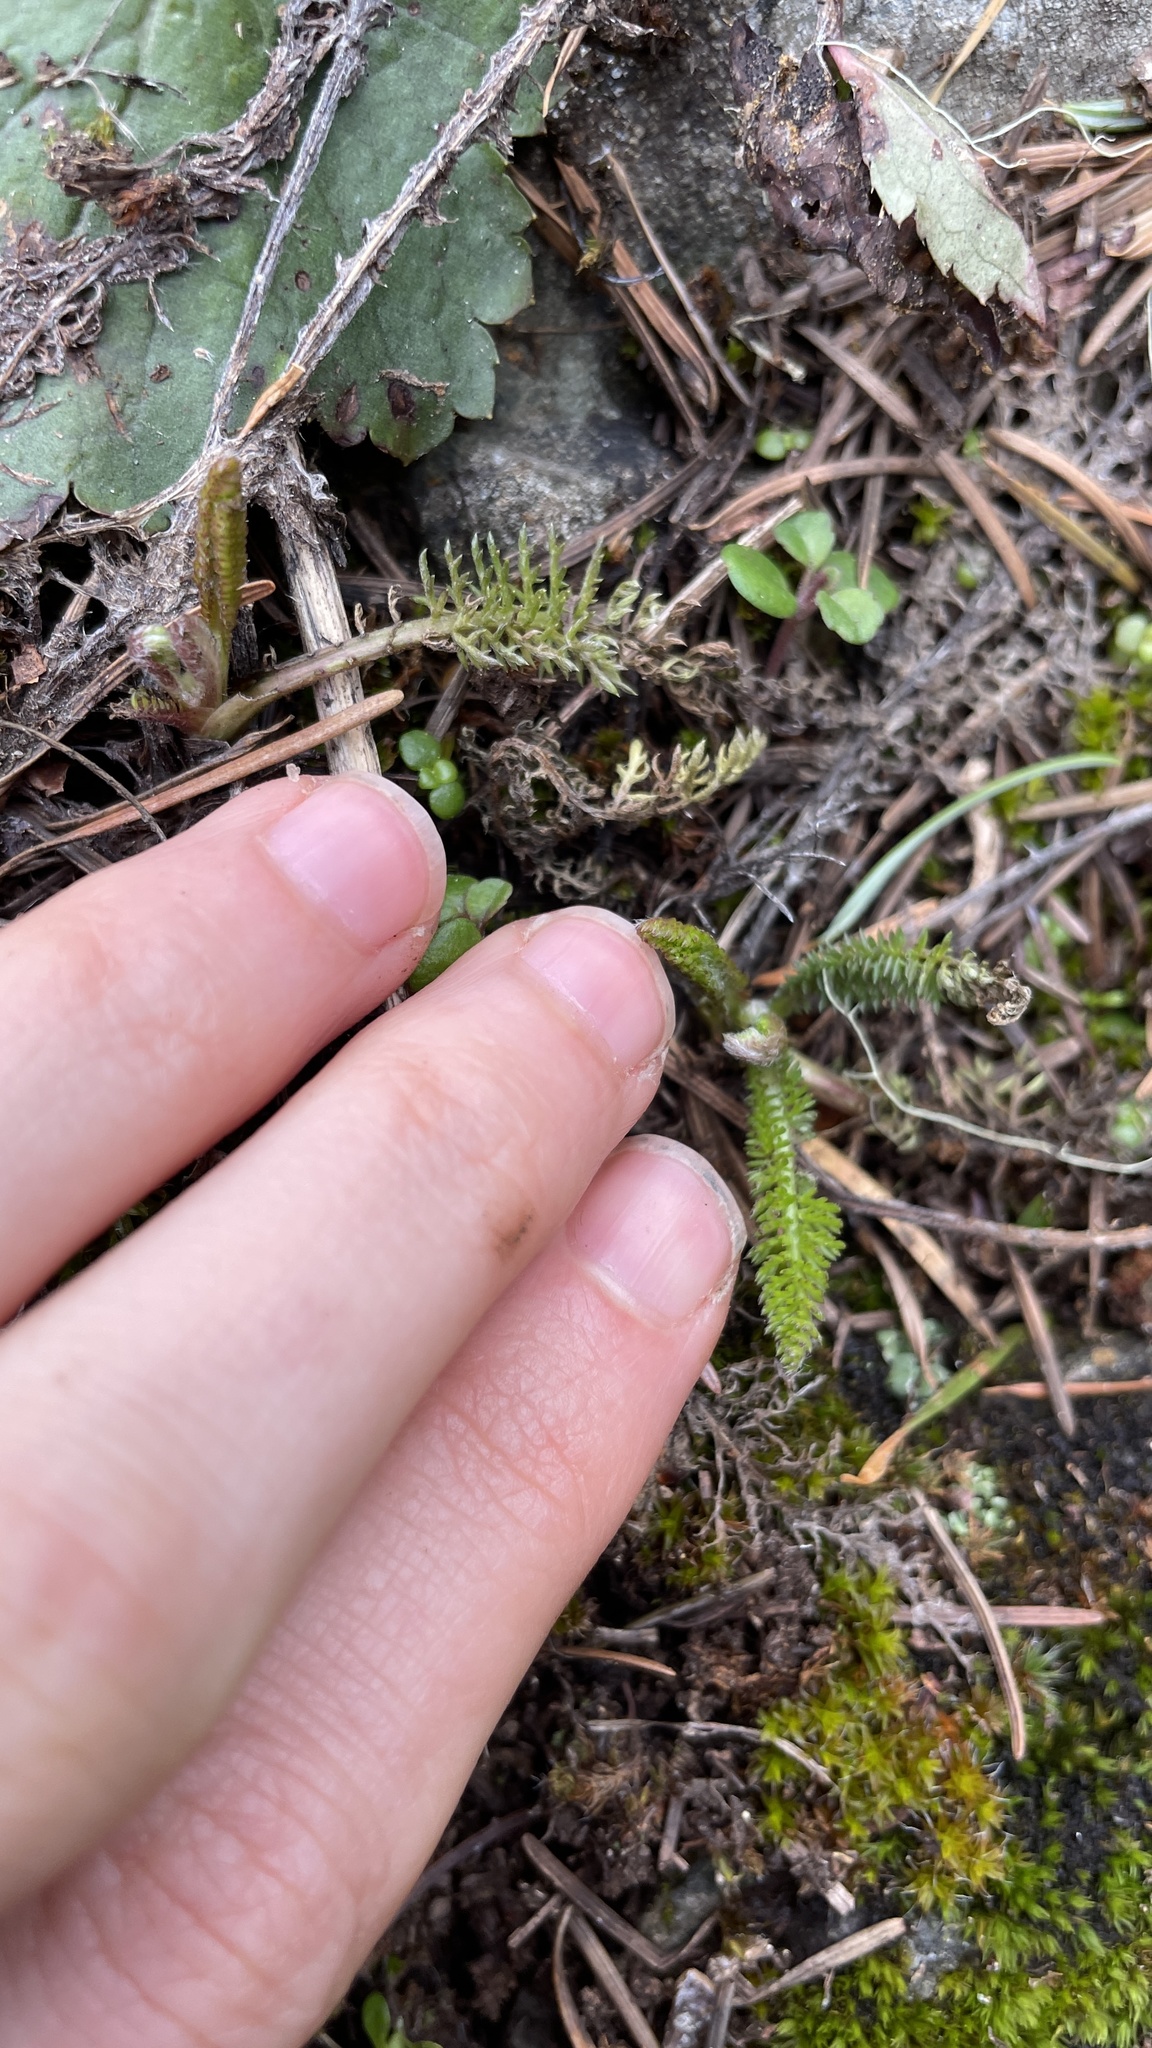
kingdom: Plantae
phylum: Tracheophyta
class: Magnoliopsida
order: Asterales
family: Asteraceae
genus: Achillea
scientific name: Achillea millefolium
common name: Yarrow
